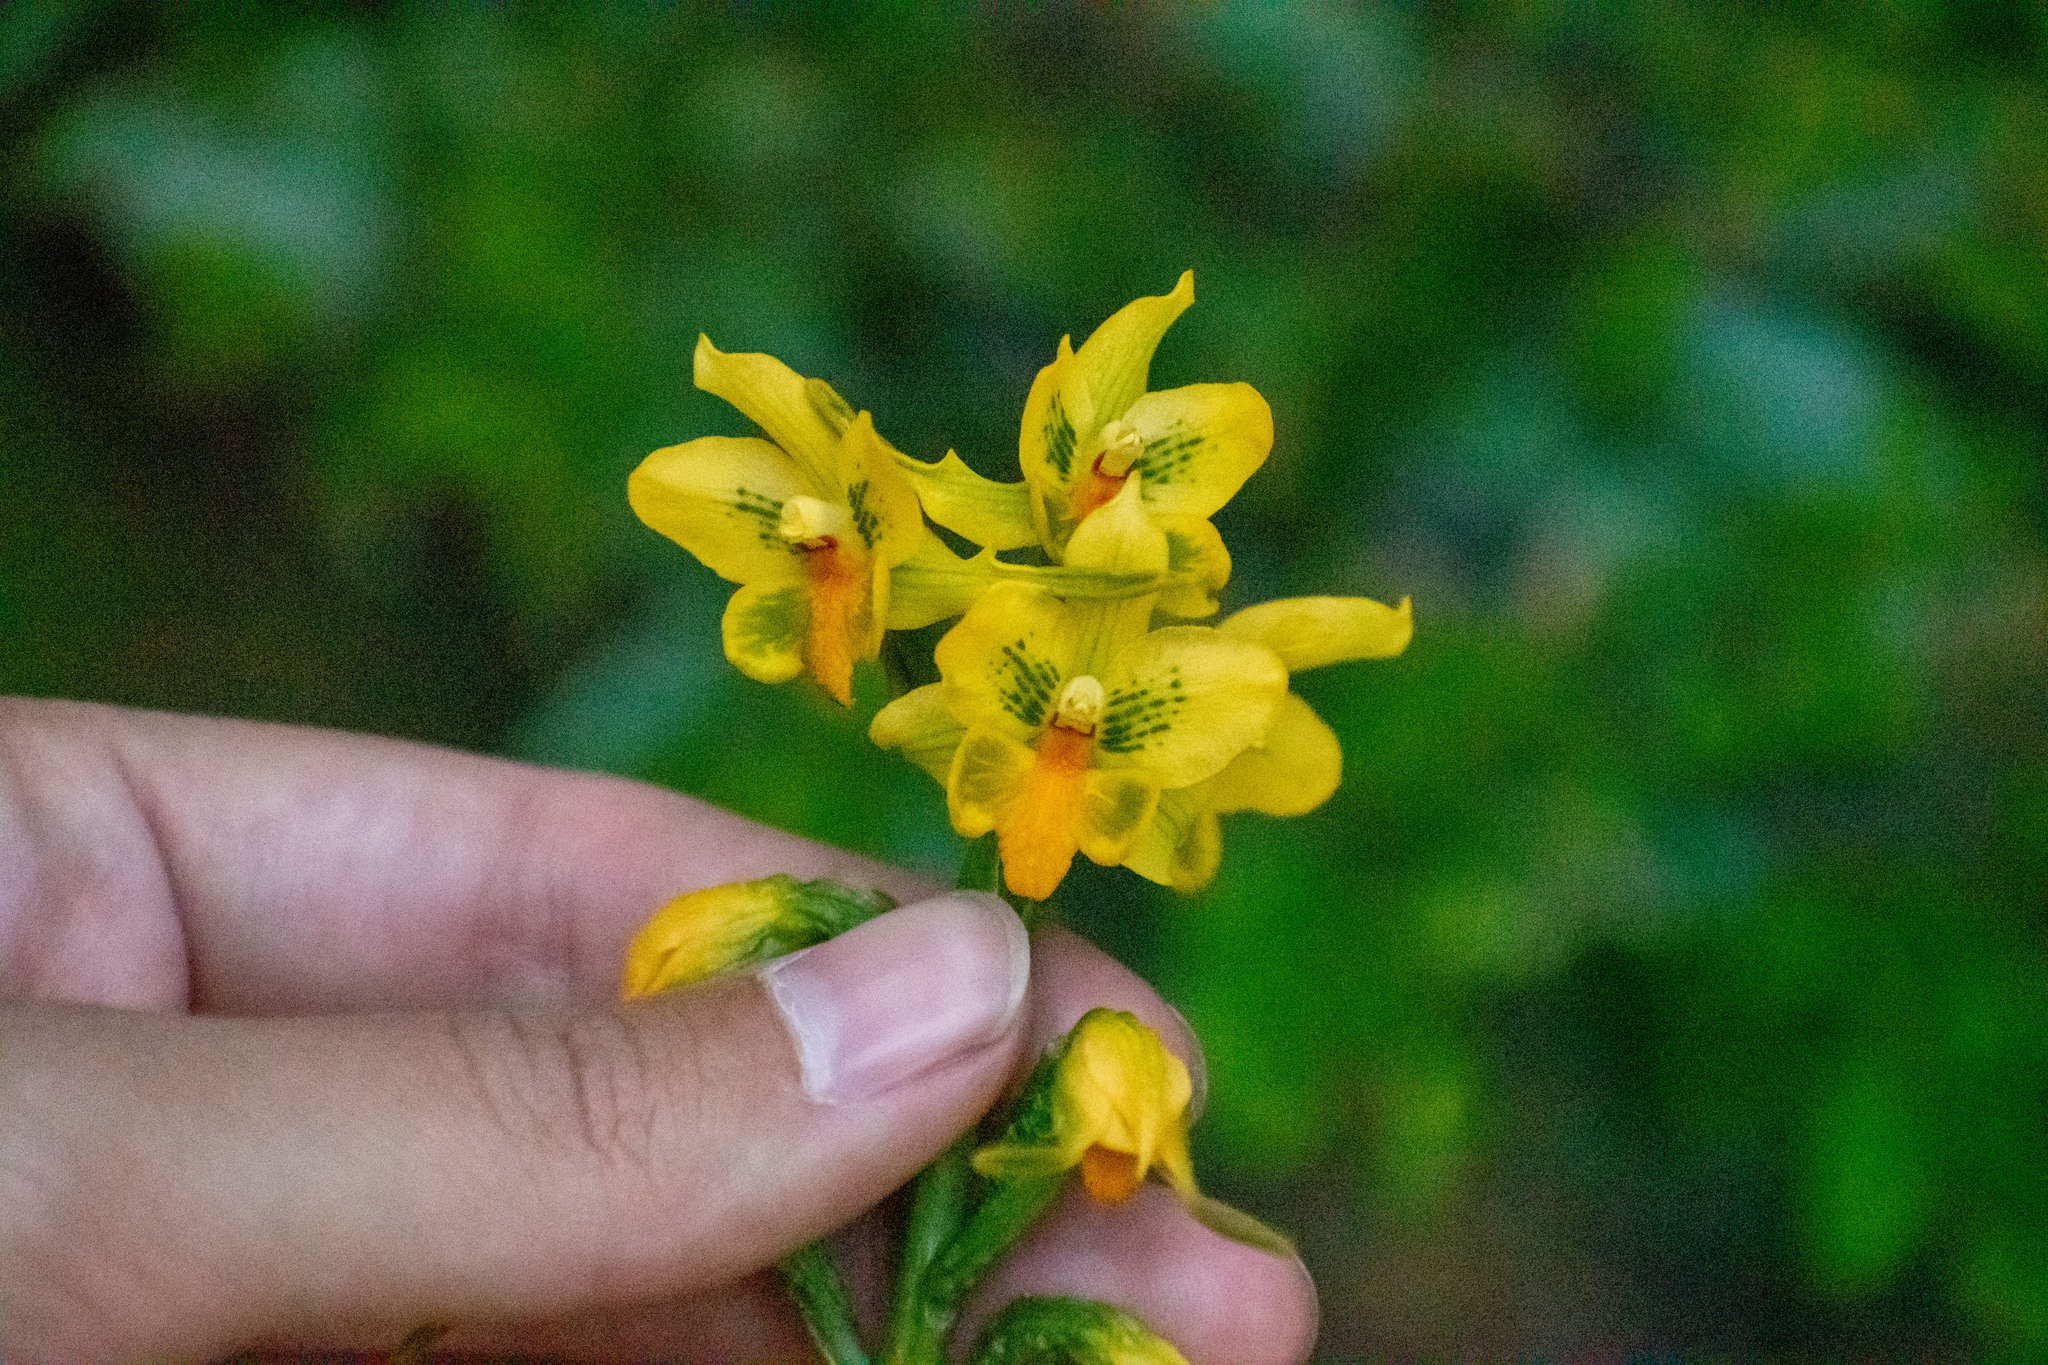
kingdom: Plantae
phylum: Tracheophyta
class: Liliopsida
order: Asparagales
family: Orchidaceae
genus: Gavilea
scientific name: Gavilea odoratissima
